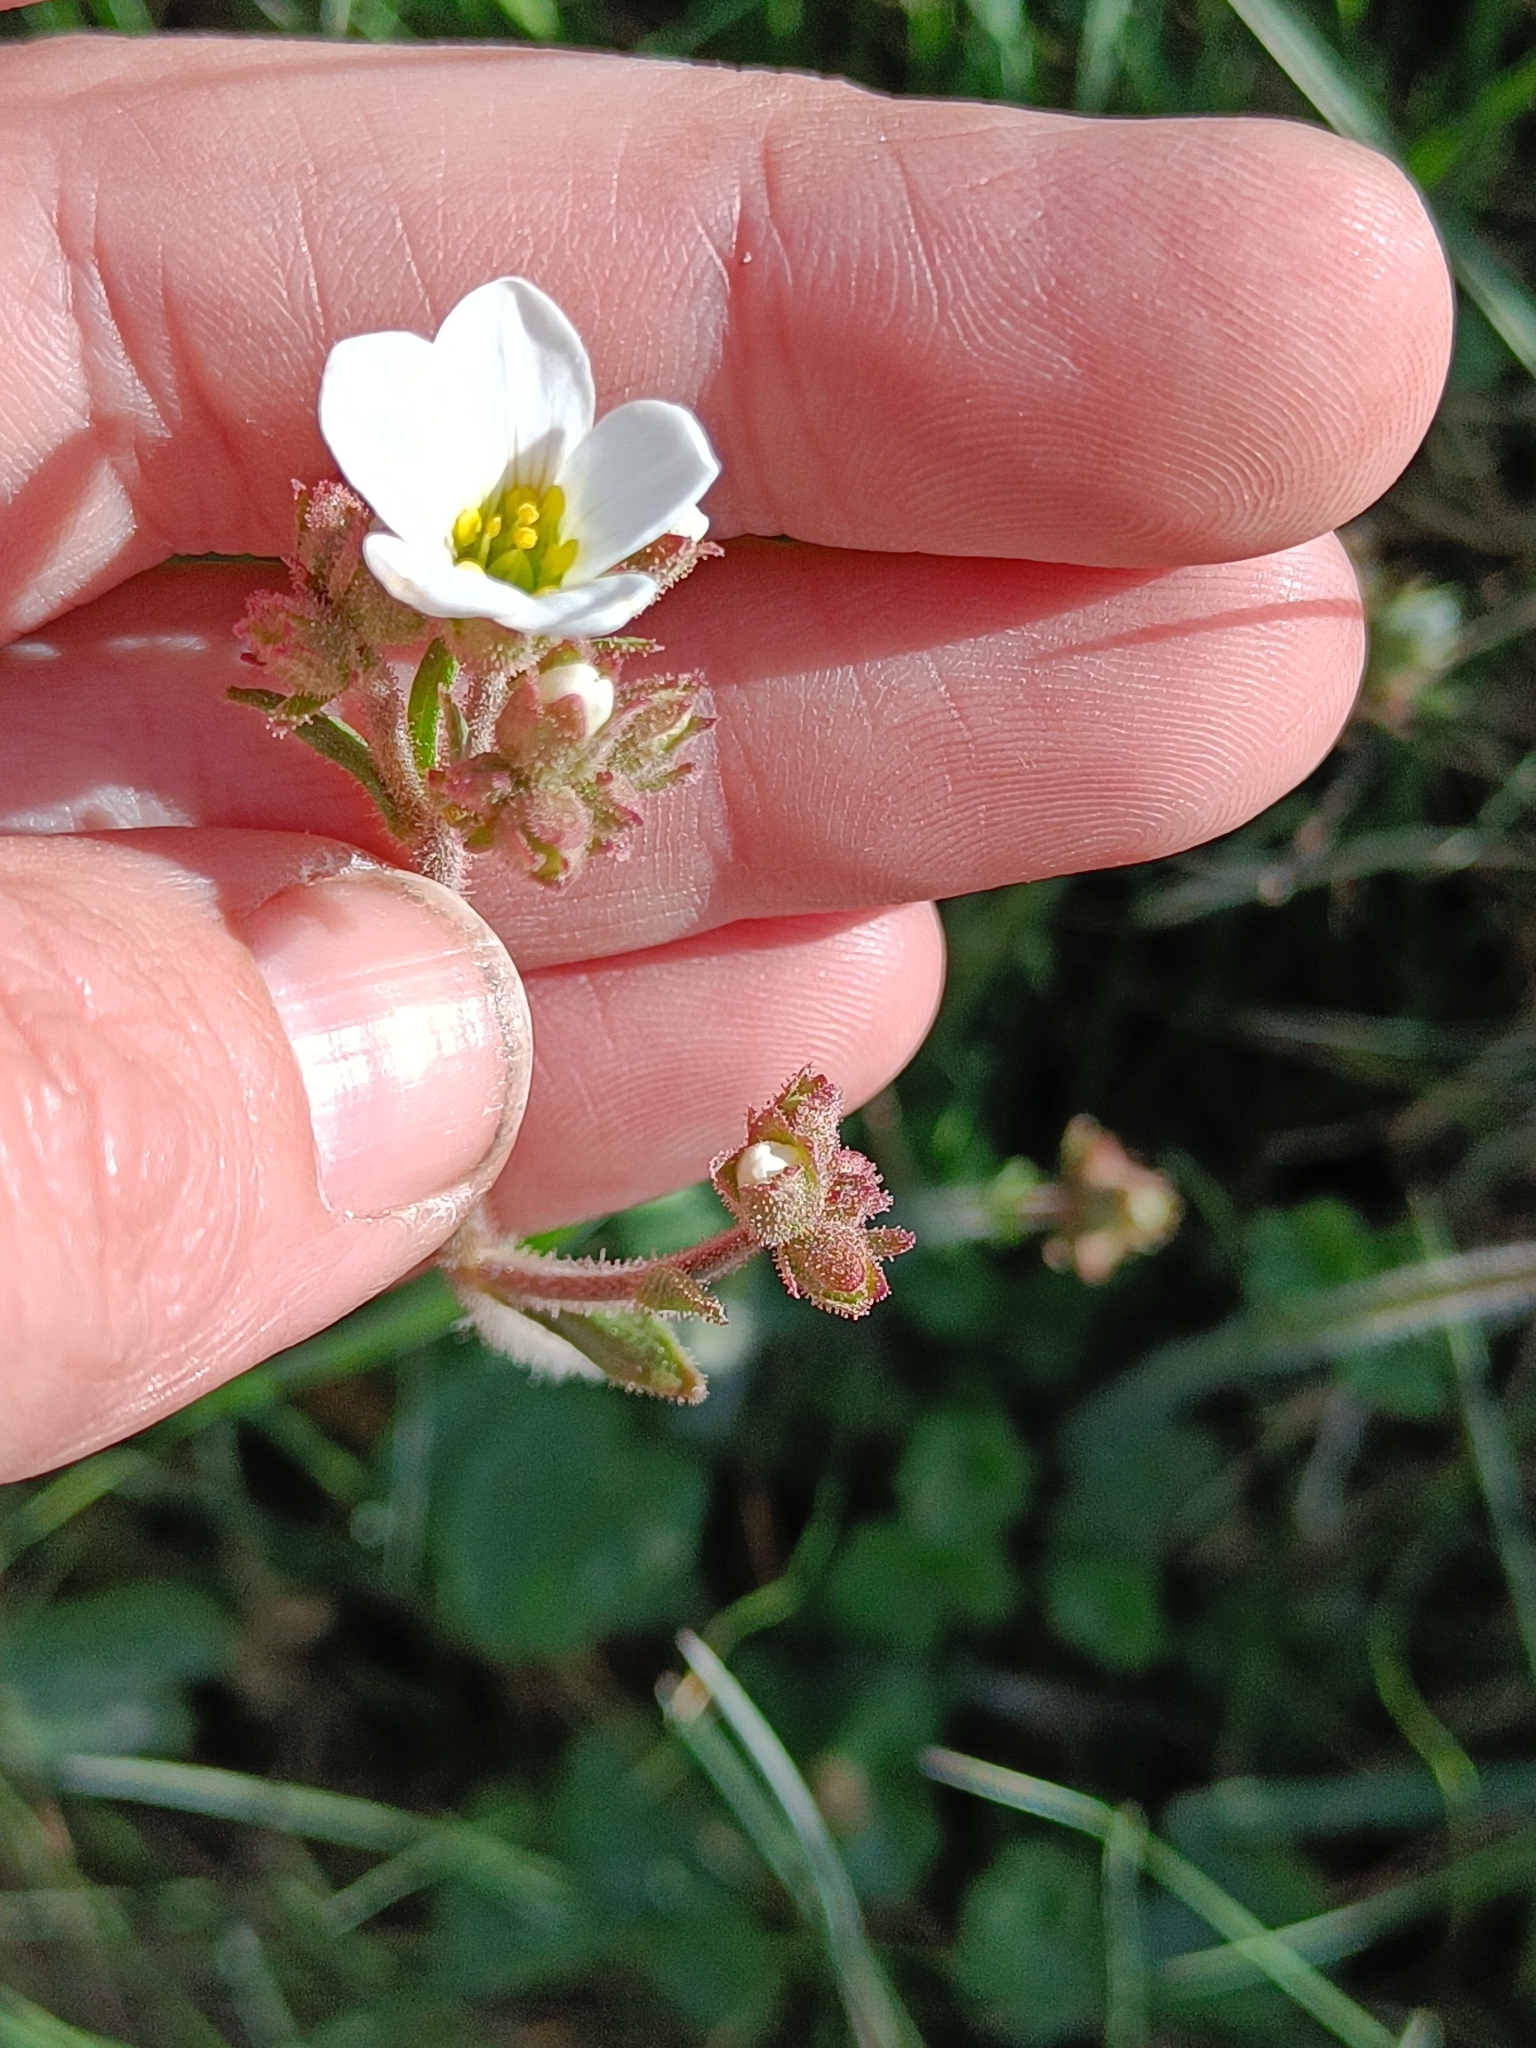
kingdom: Plantae
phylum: Tracheophyta
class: Magnoliopsida
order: Saxifragales
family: Saxifragaceae
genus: Saxifraga
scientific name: Saxifraga granulata
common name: Meadow saxifrage
